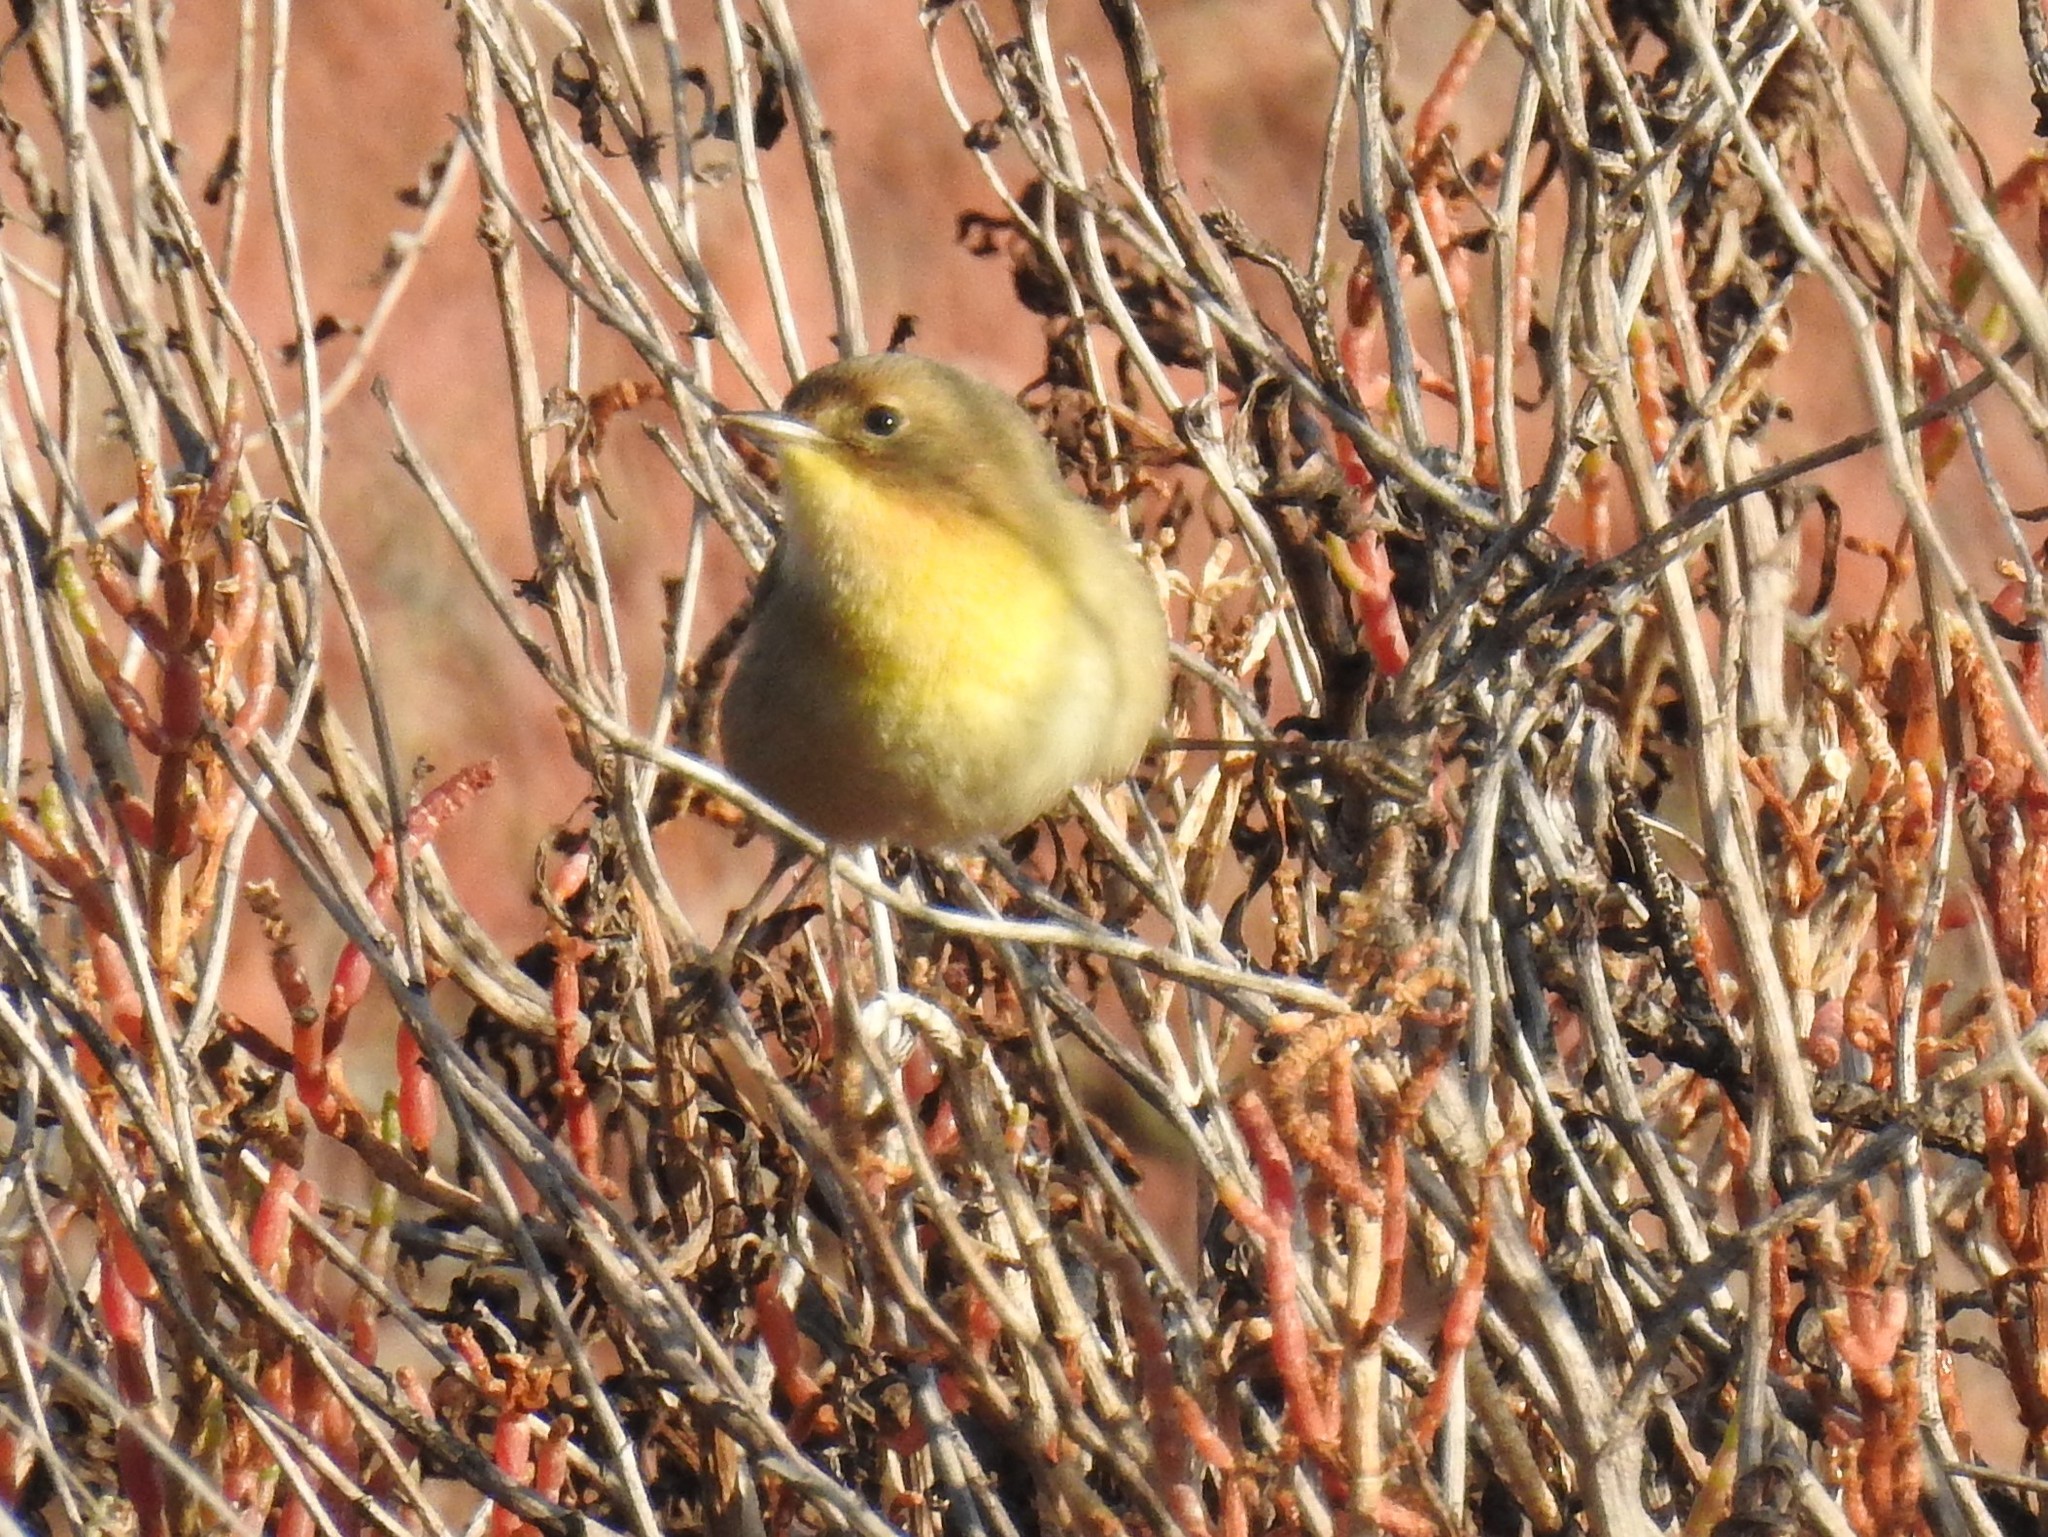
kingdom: Animalia
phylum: Chordata
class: Aves
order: Passeriformes
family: Parulidae
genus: Geothlypis
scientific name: Geothlypis trichas
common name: Common yellowthroat
